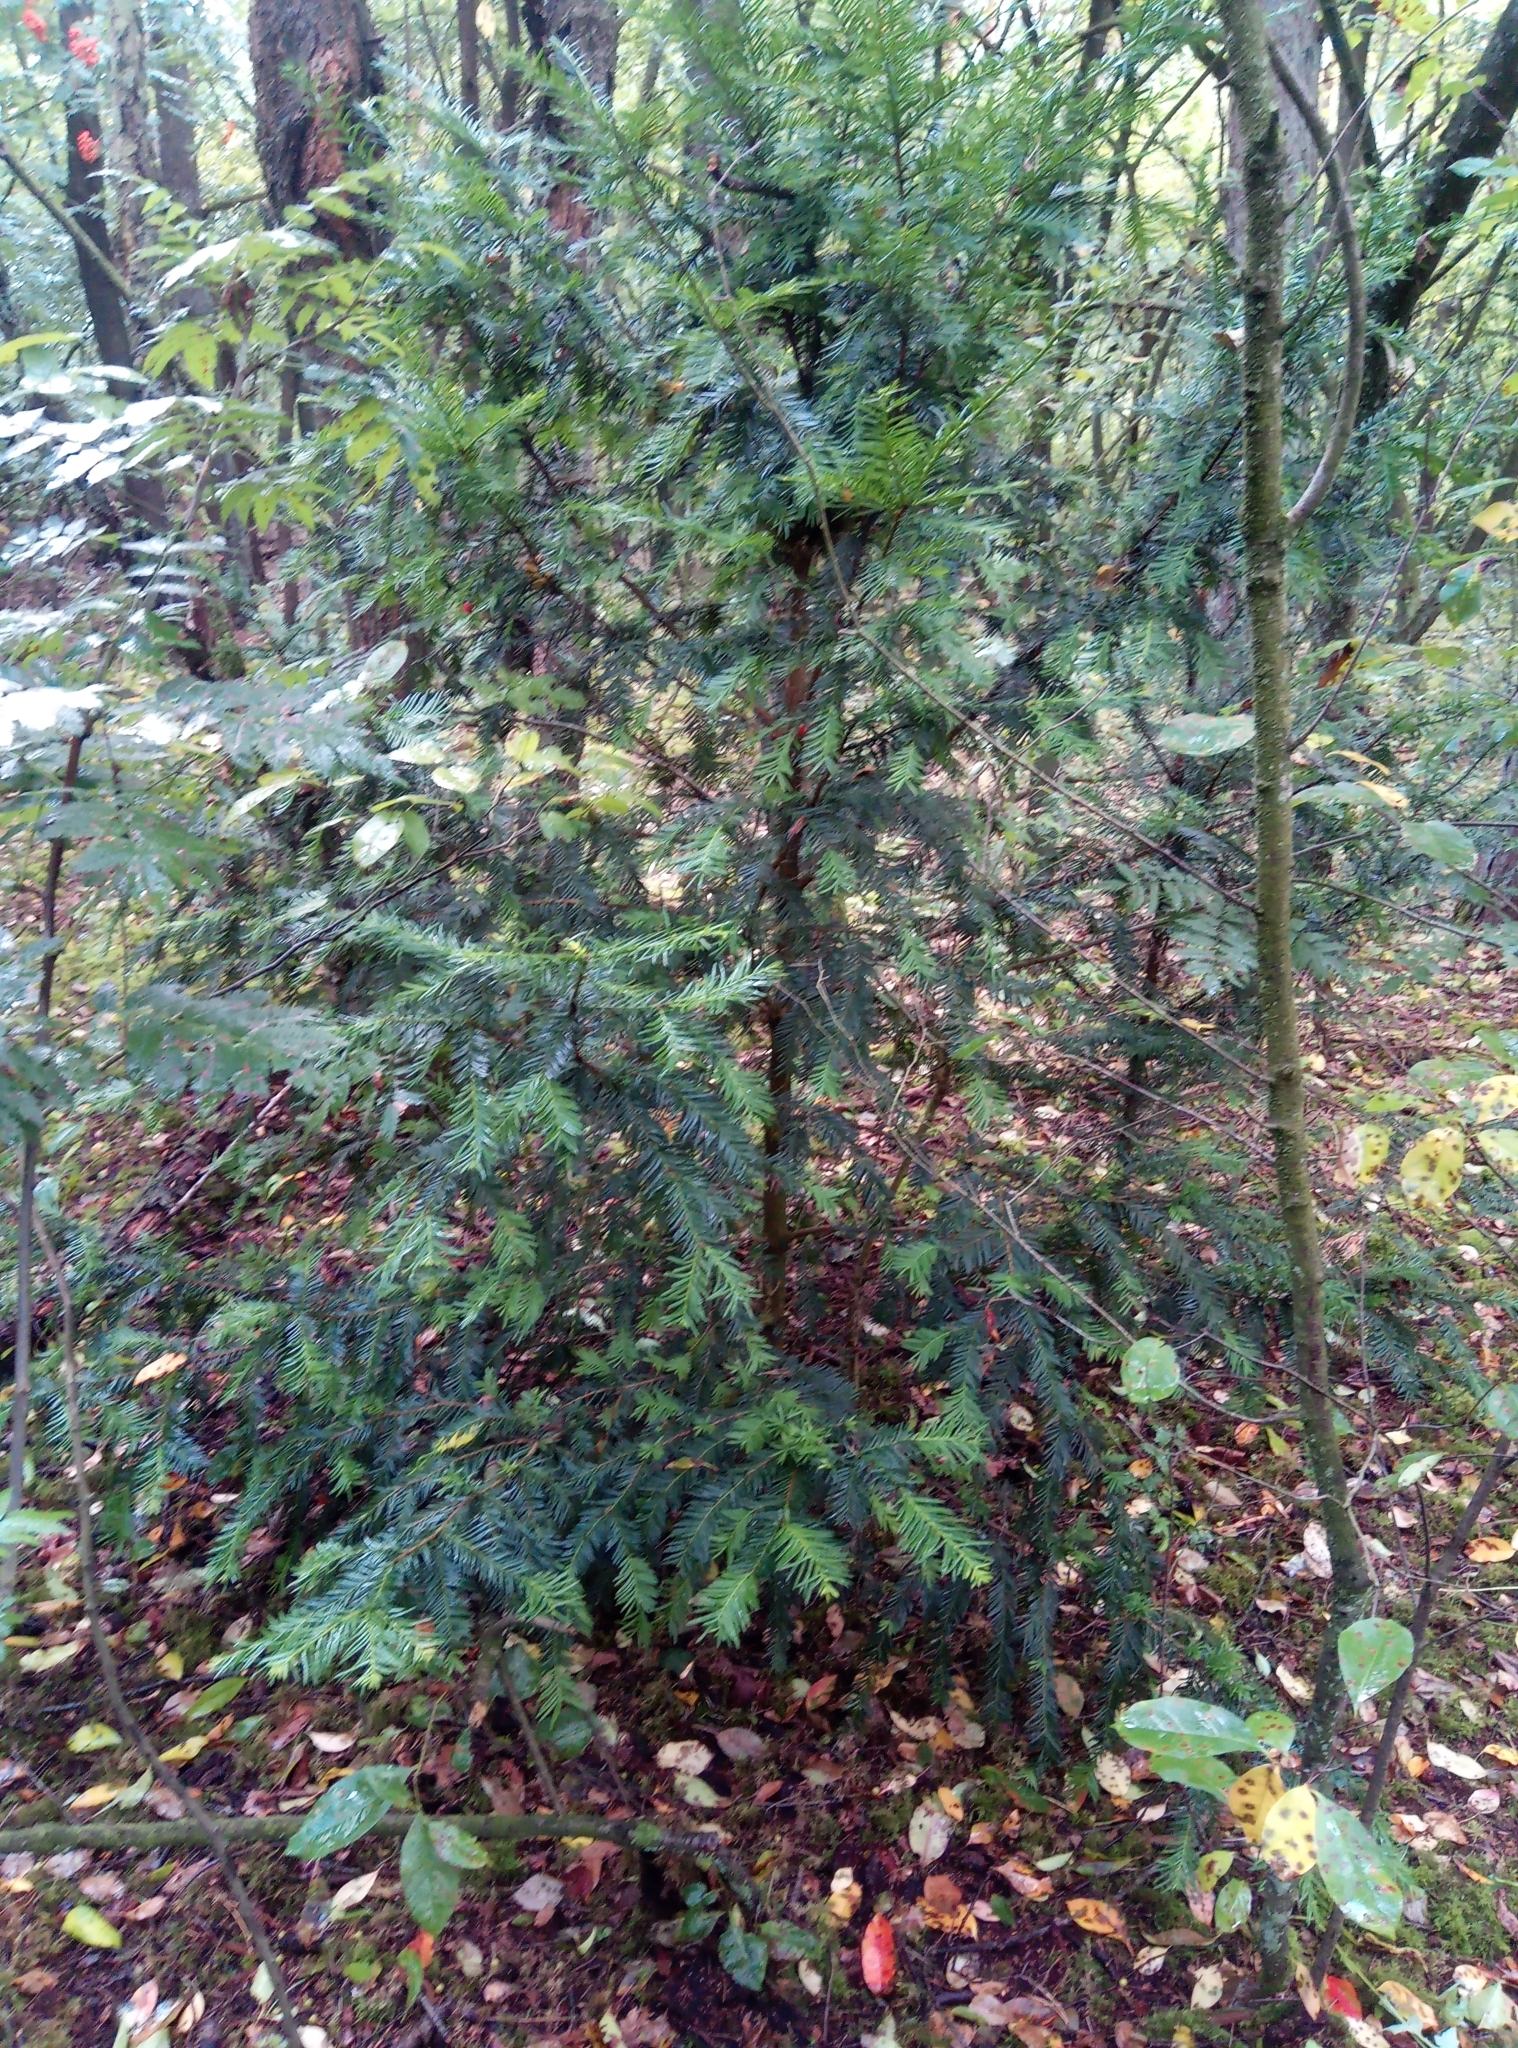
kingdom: Plantae
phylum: Tracheophyta
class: Pinopsida
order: Pinales
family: Taxaceae
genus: Taxus
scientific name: Taxus baccata
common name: Yew
